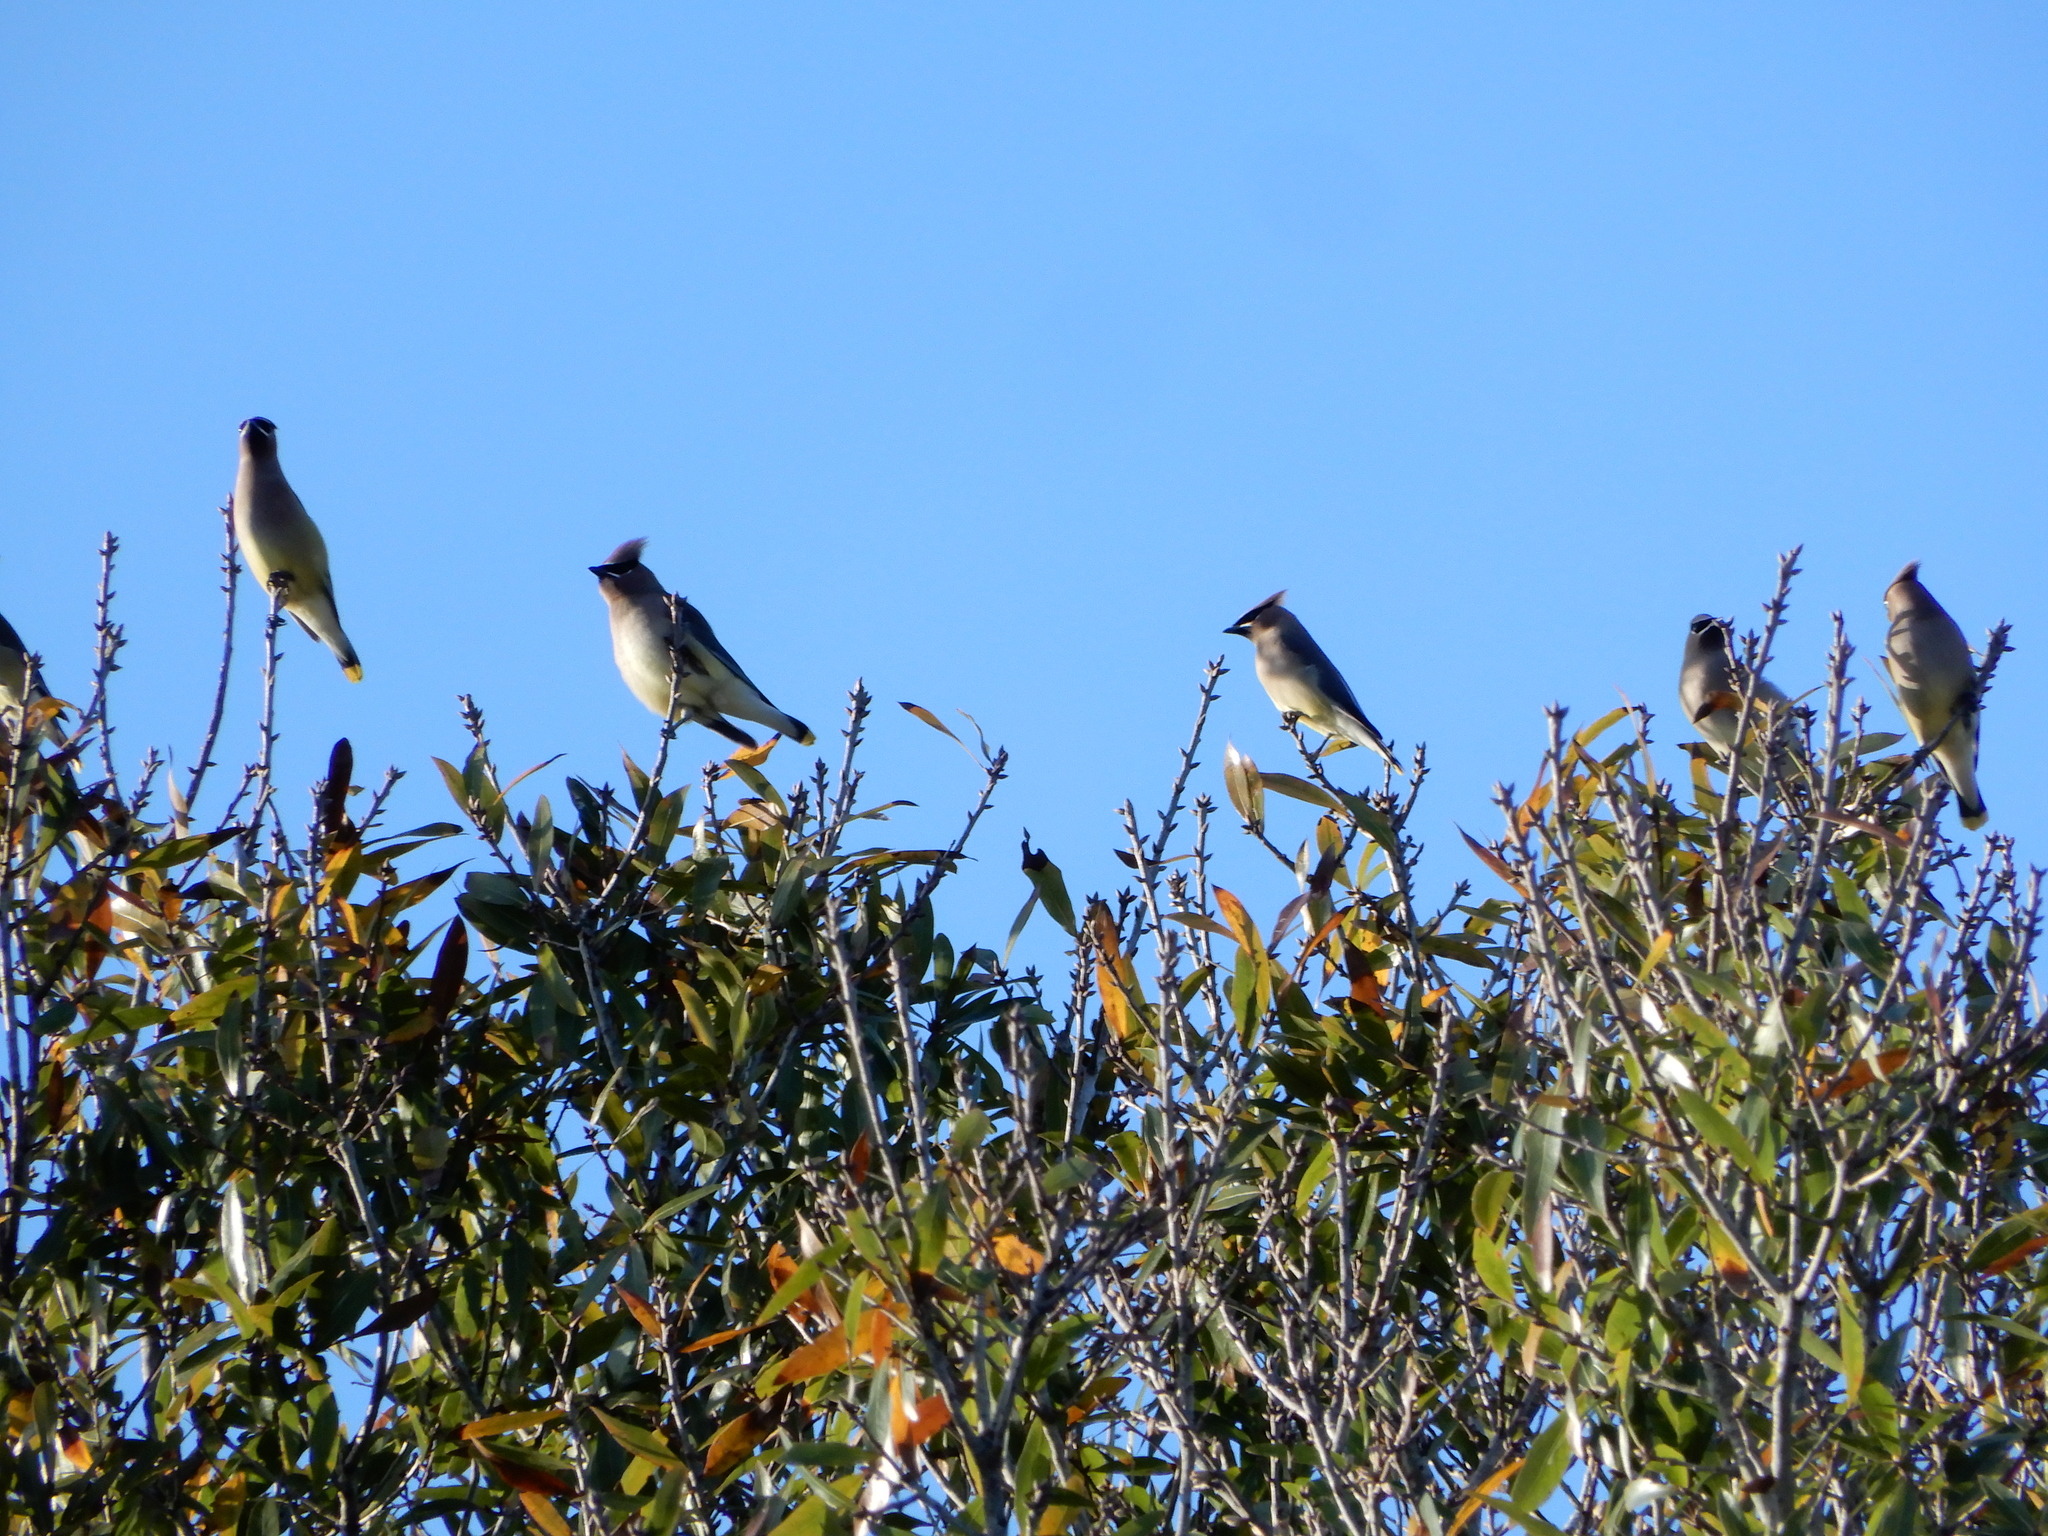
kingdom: Animalia
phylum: Chordata
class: Aves
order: Passeriformes
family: Bombycillidae
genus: Bombycilla
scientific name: Bombycilla cedrorum
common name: Cedar waxwing
